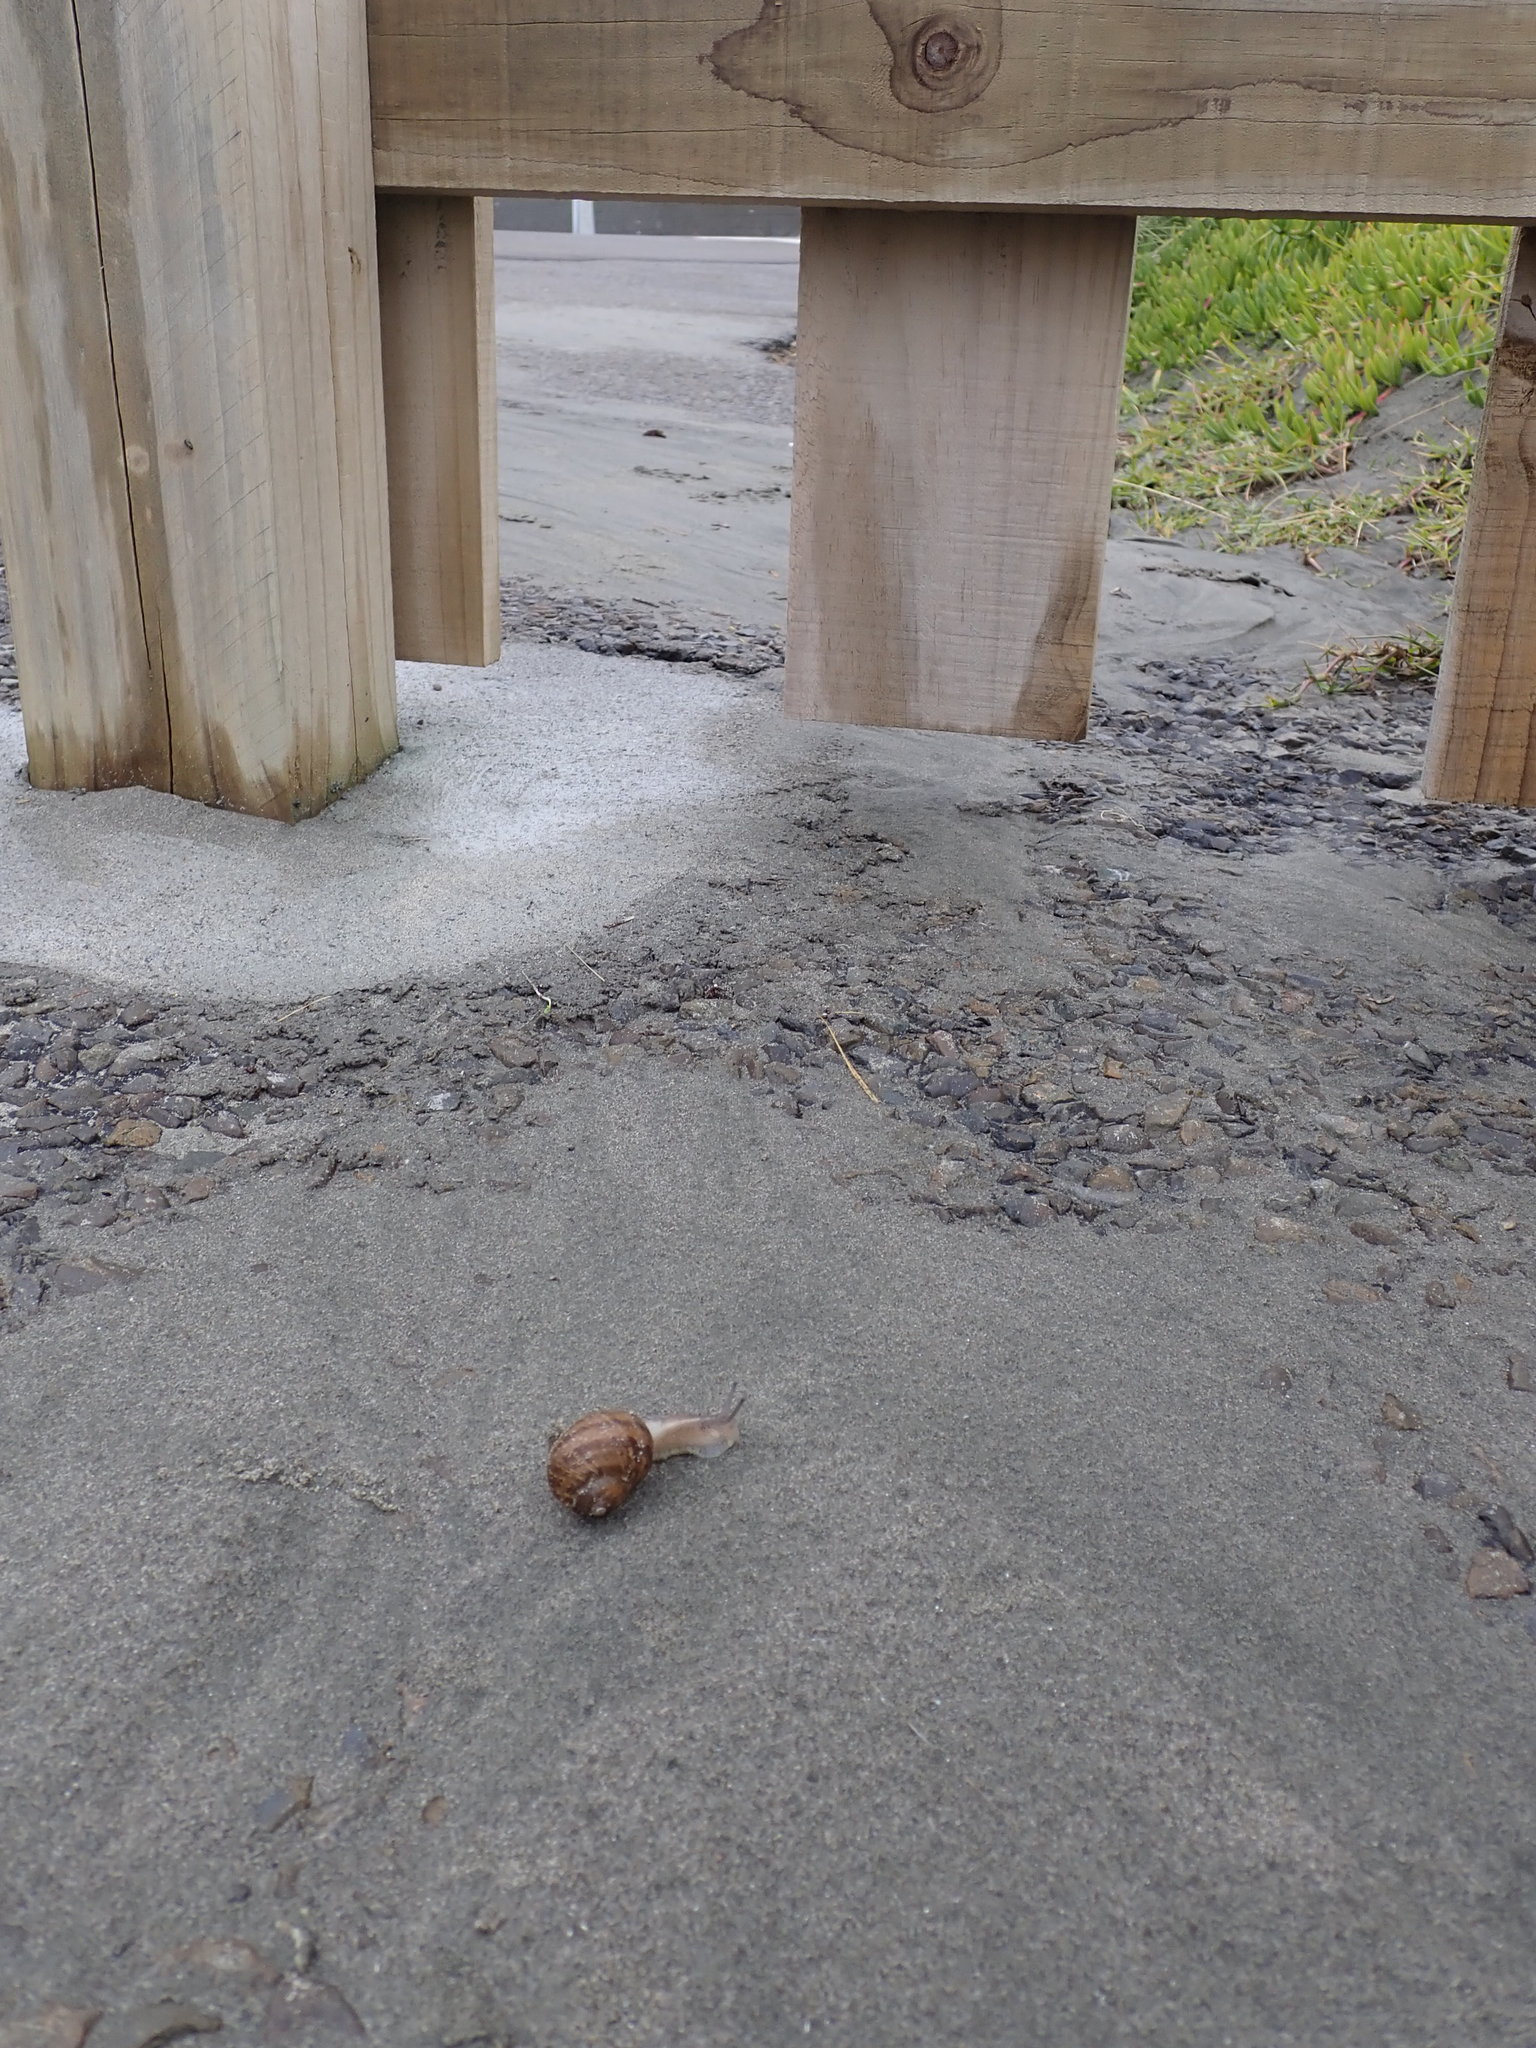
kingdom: Animalia
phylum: Mollusca
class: Gastropoda
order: Stylommatophora
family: Helicidae
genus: Cornu
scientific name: Cornu aspersum
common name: Brown garden snail
